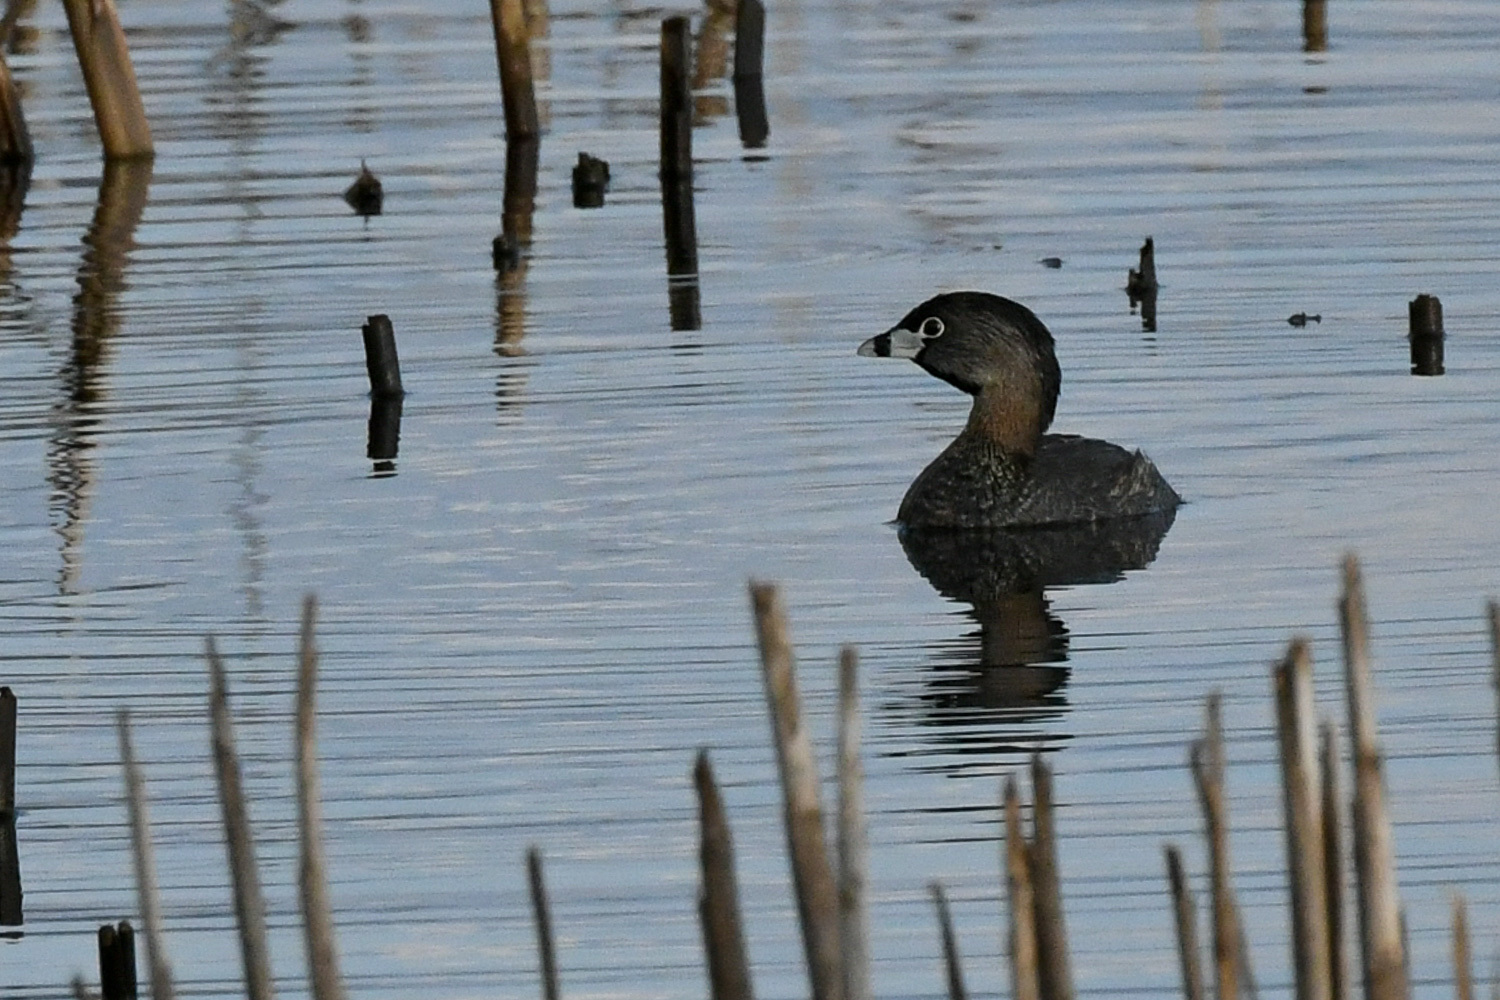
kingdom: Animalia
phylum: Chordata
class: Aves
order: Podicipediformes
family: Podicipedidae
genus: Podilymbus
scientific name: Podilymbus podiceps
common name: Pied-billed grebe
